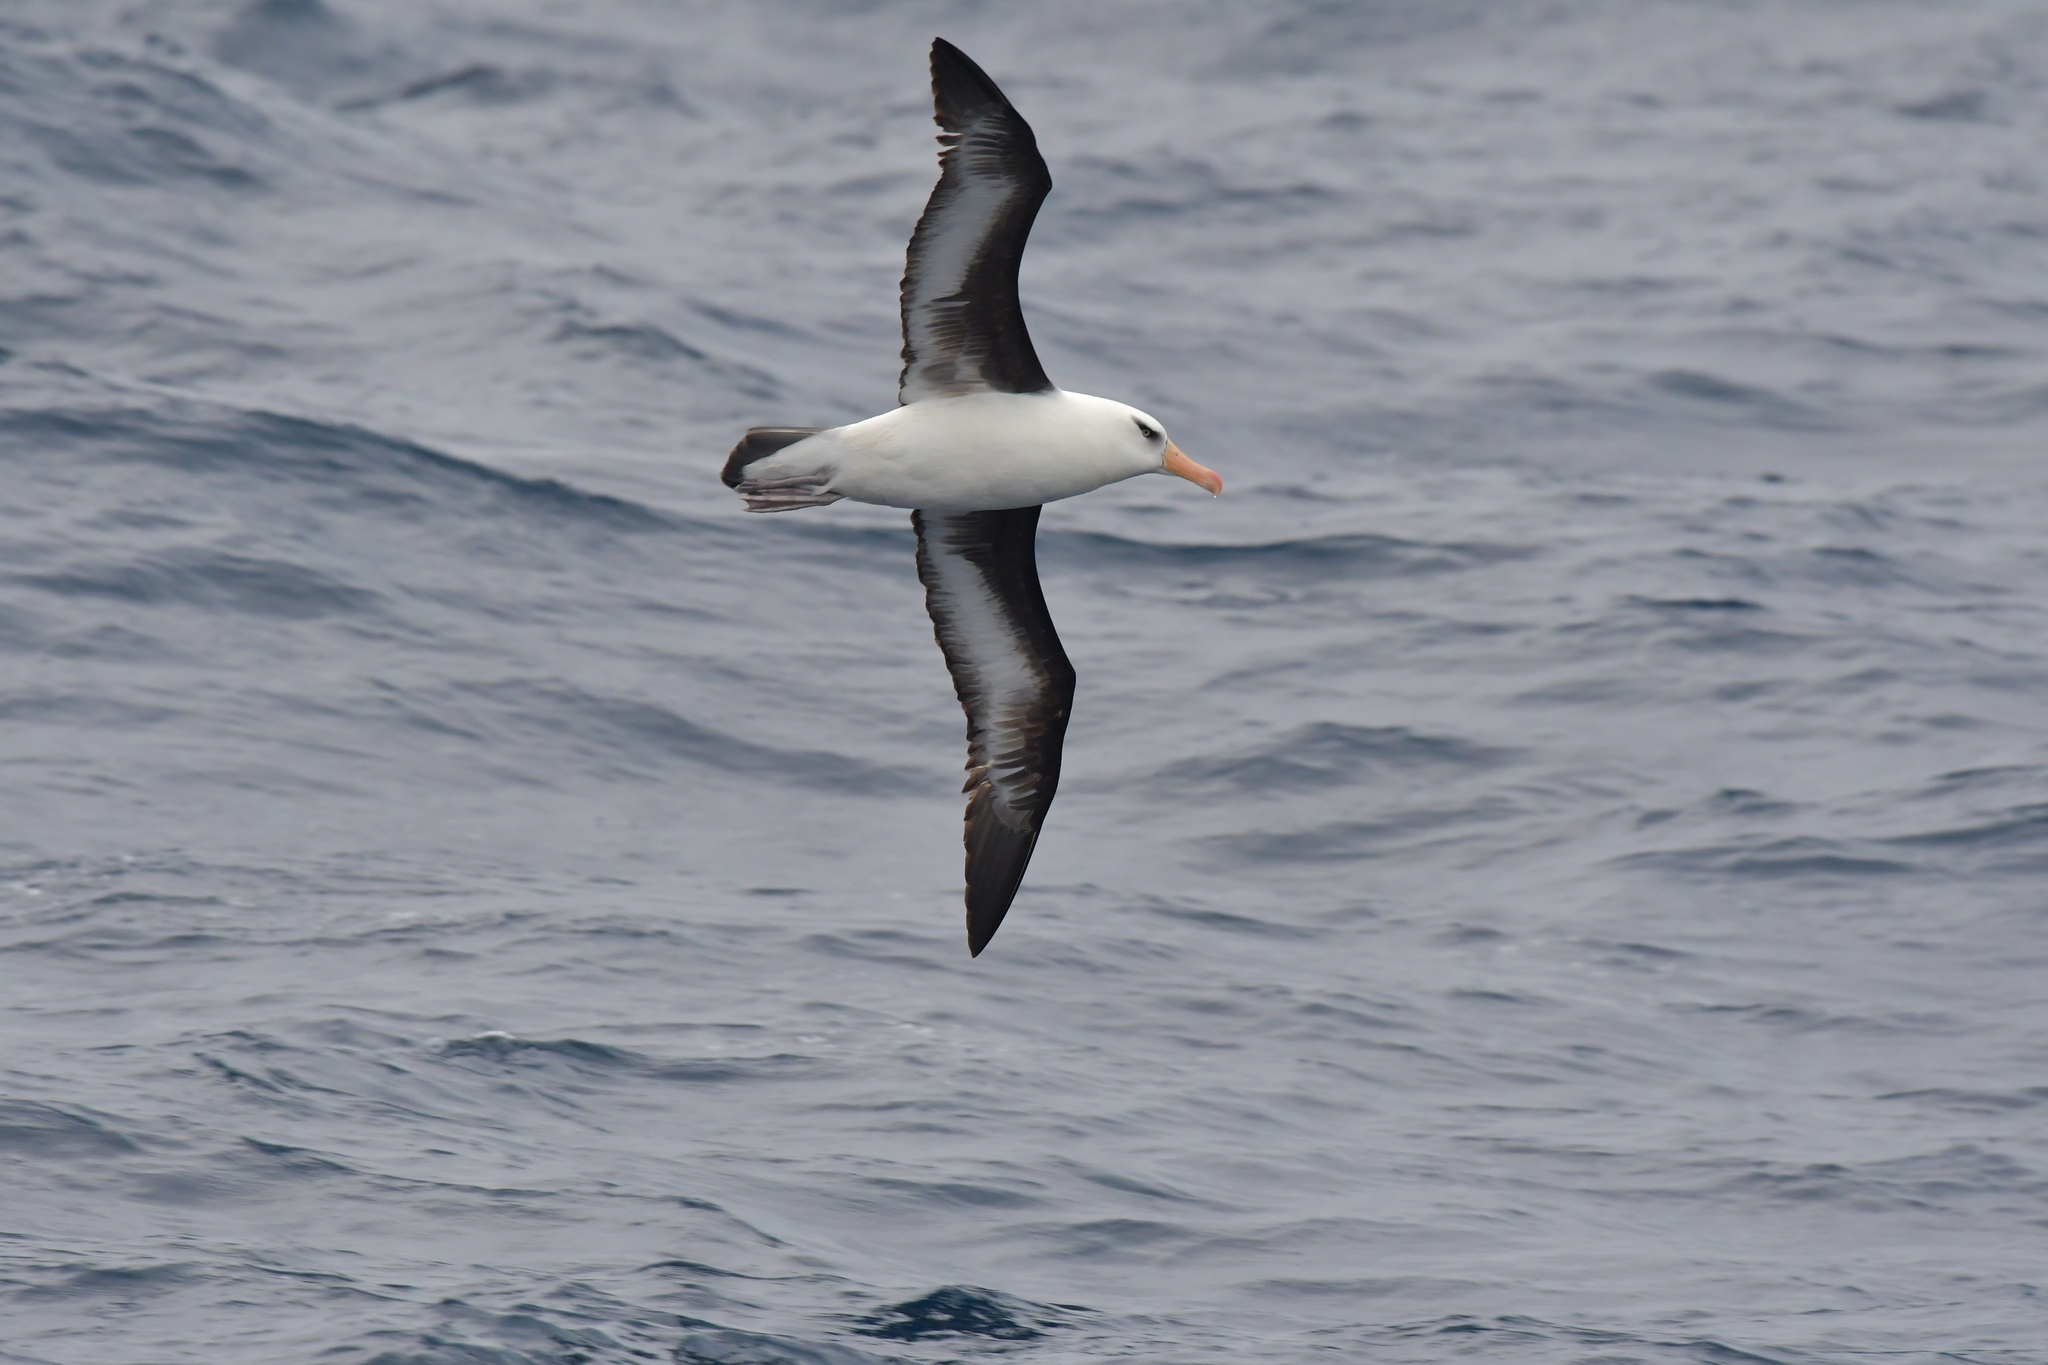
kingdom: Animalia
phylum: Chordata
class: Aves
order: Procellariiformes
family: Diomedeidae
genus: Thalassarche
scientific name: Thalassarche impavida
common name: Campbell albatross
